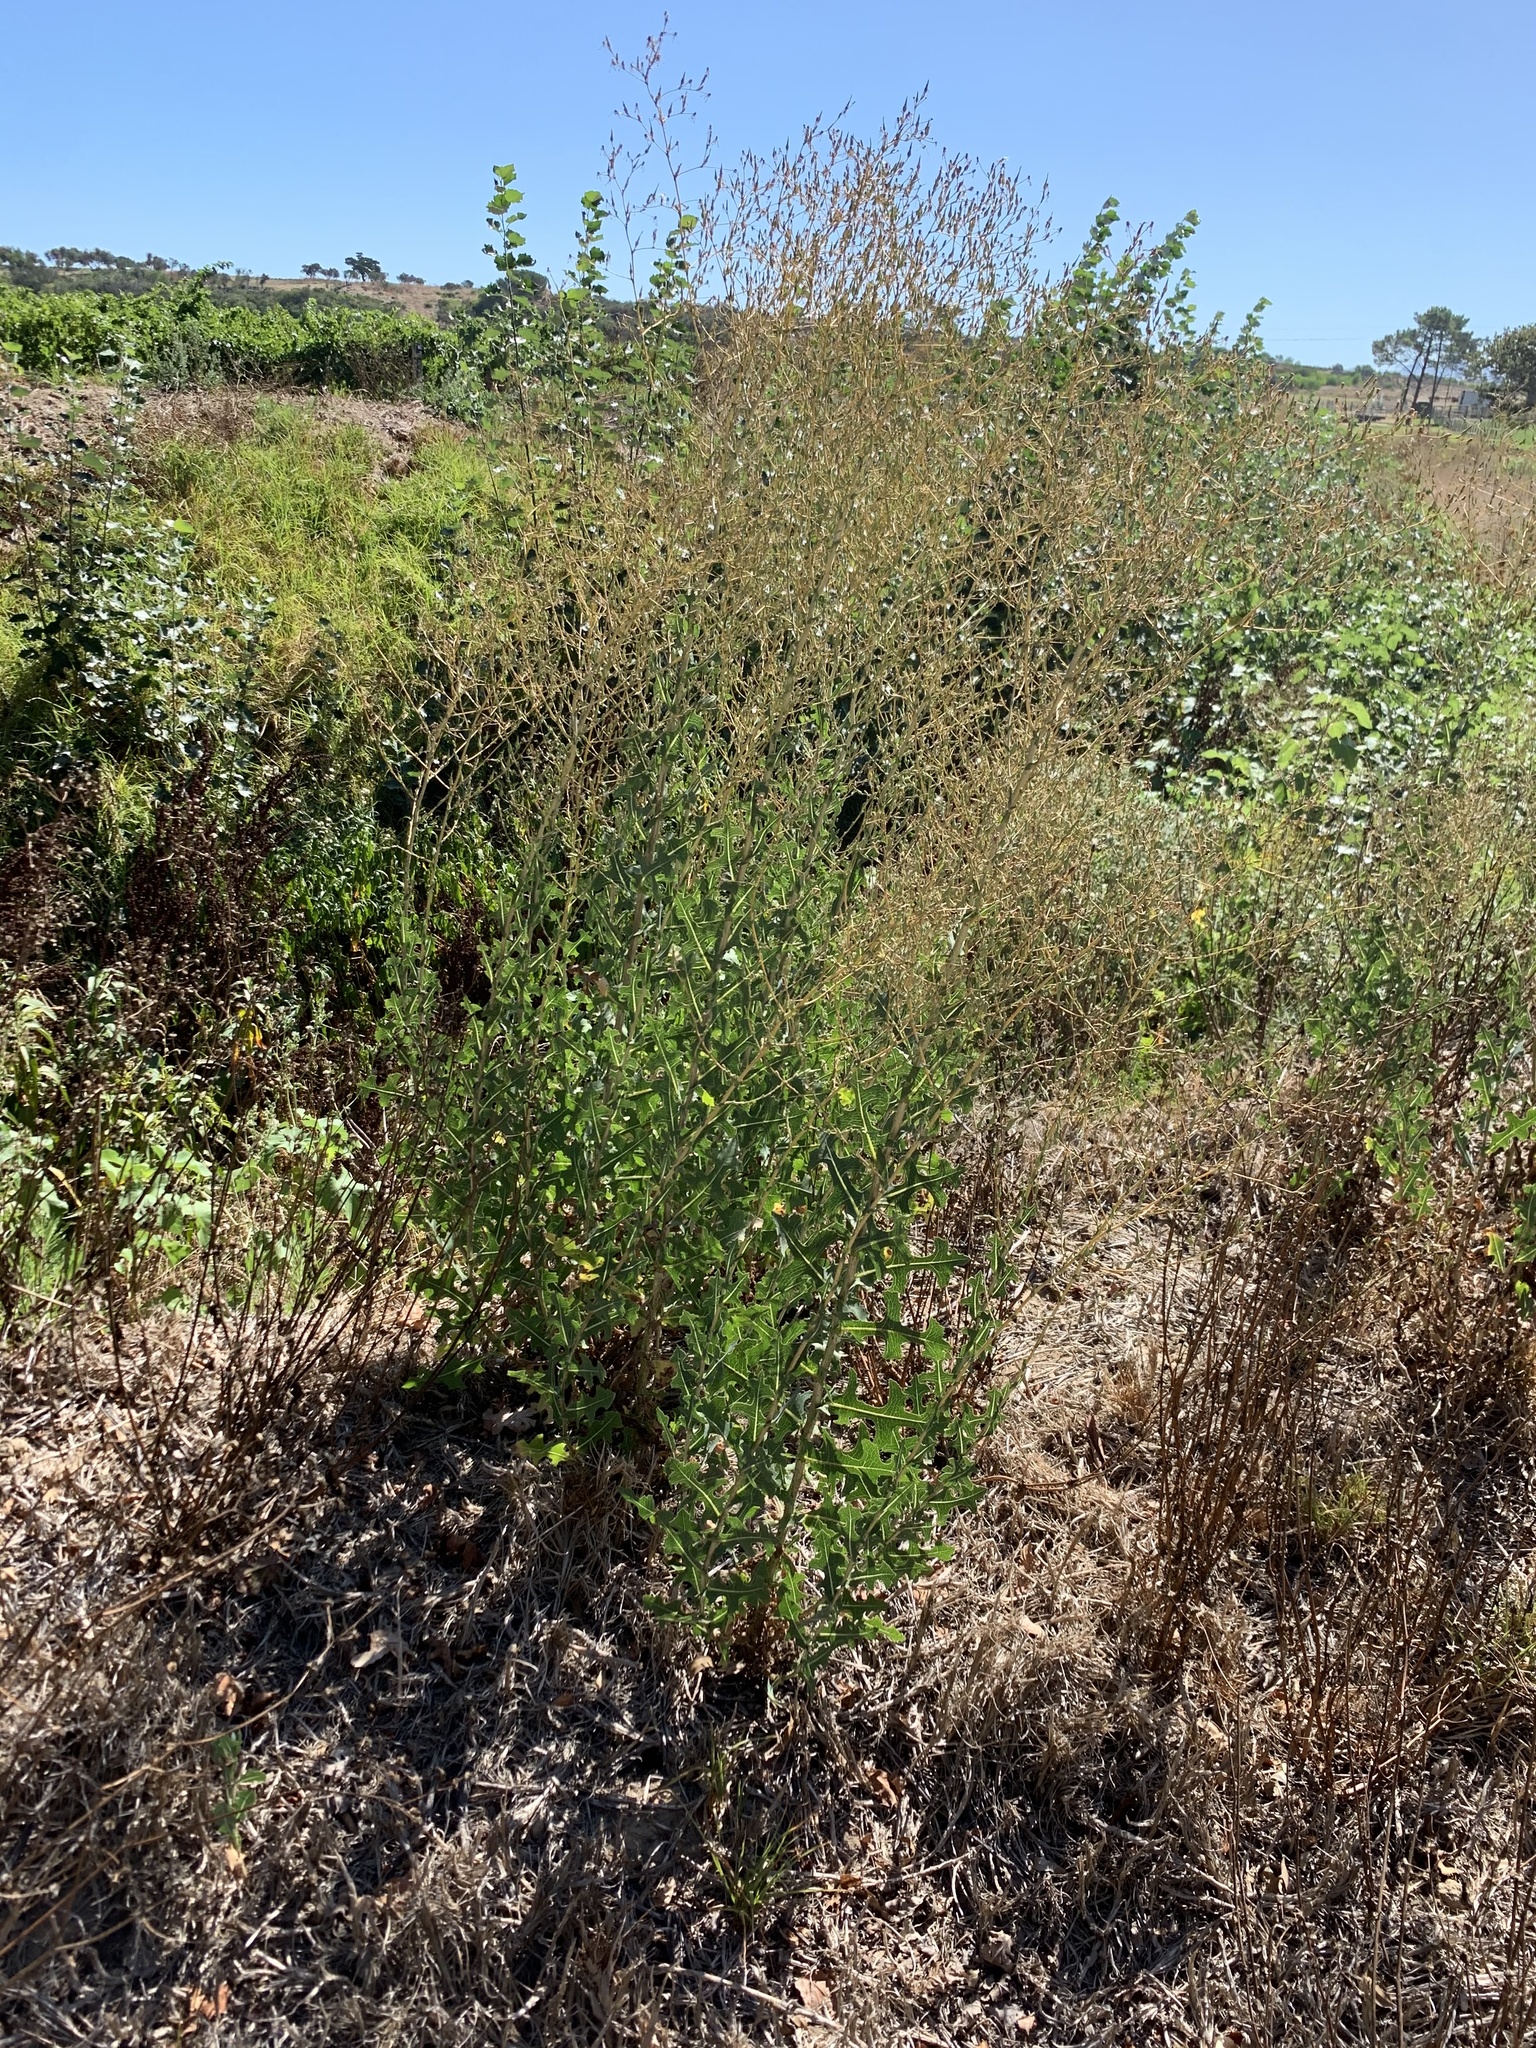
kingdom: Plantae
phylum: Tracheophyta
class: Magnoliopsida
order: Asterales
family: Asteraceae
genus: Lactuca
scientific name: Lactuca serriola
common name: Prickly lettuce
